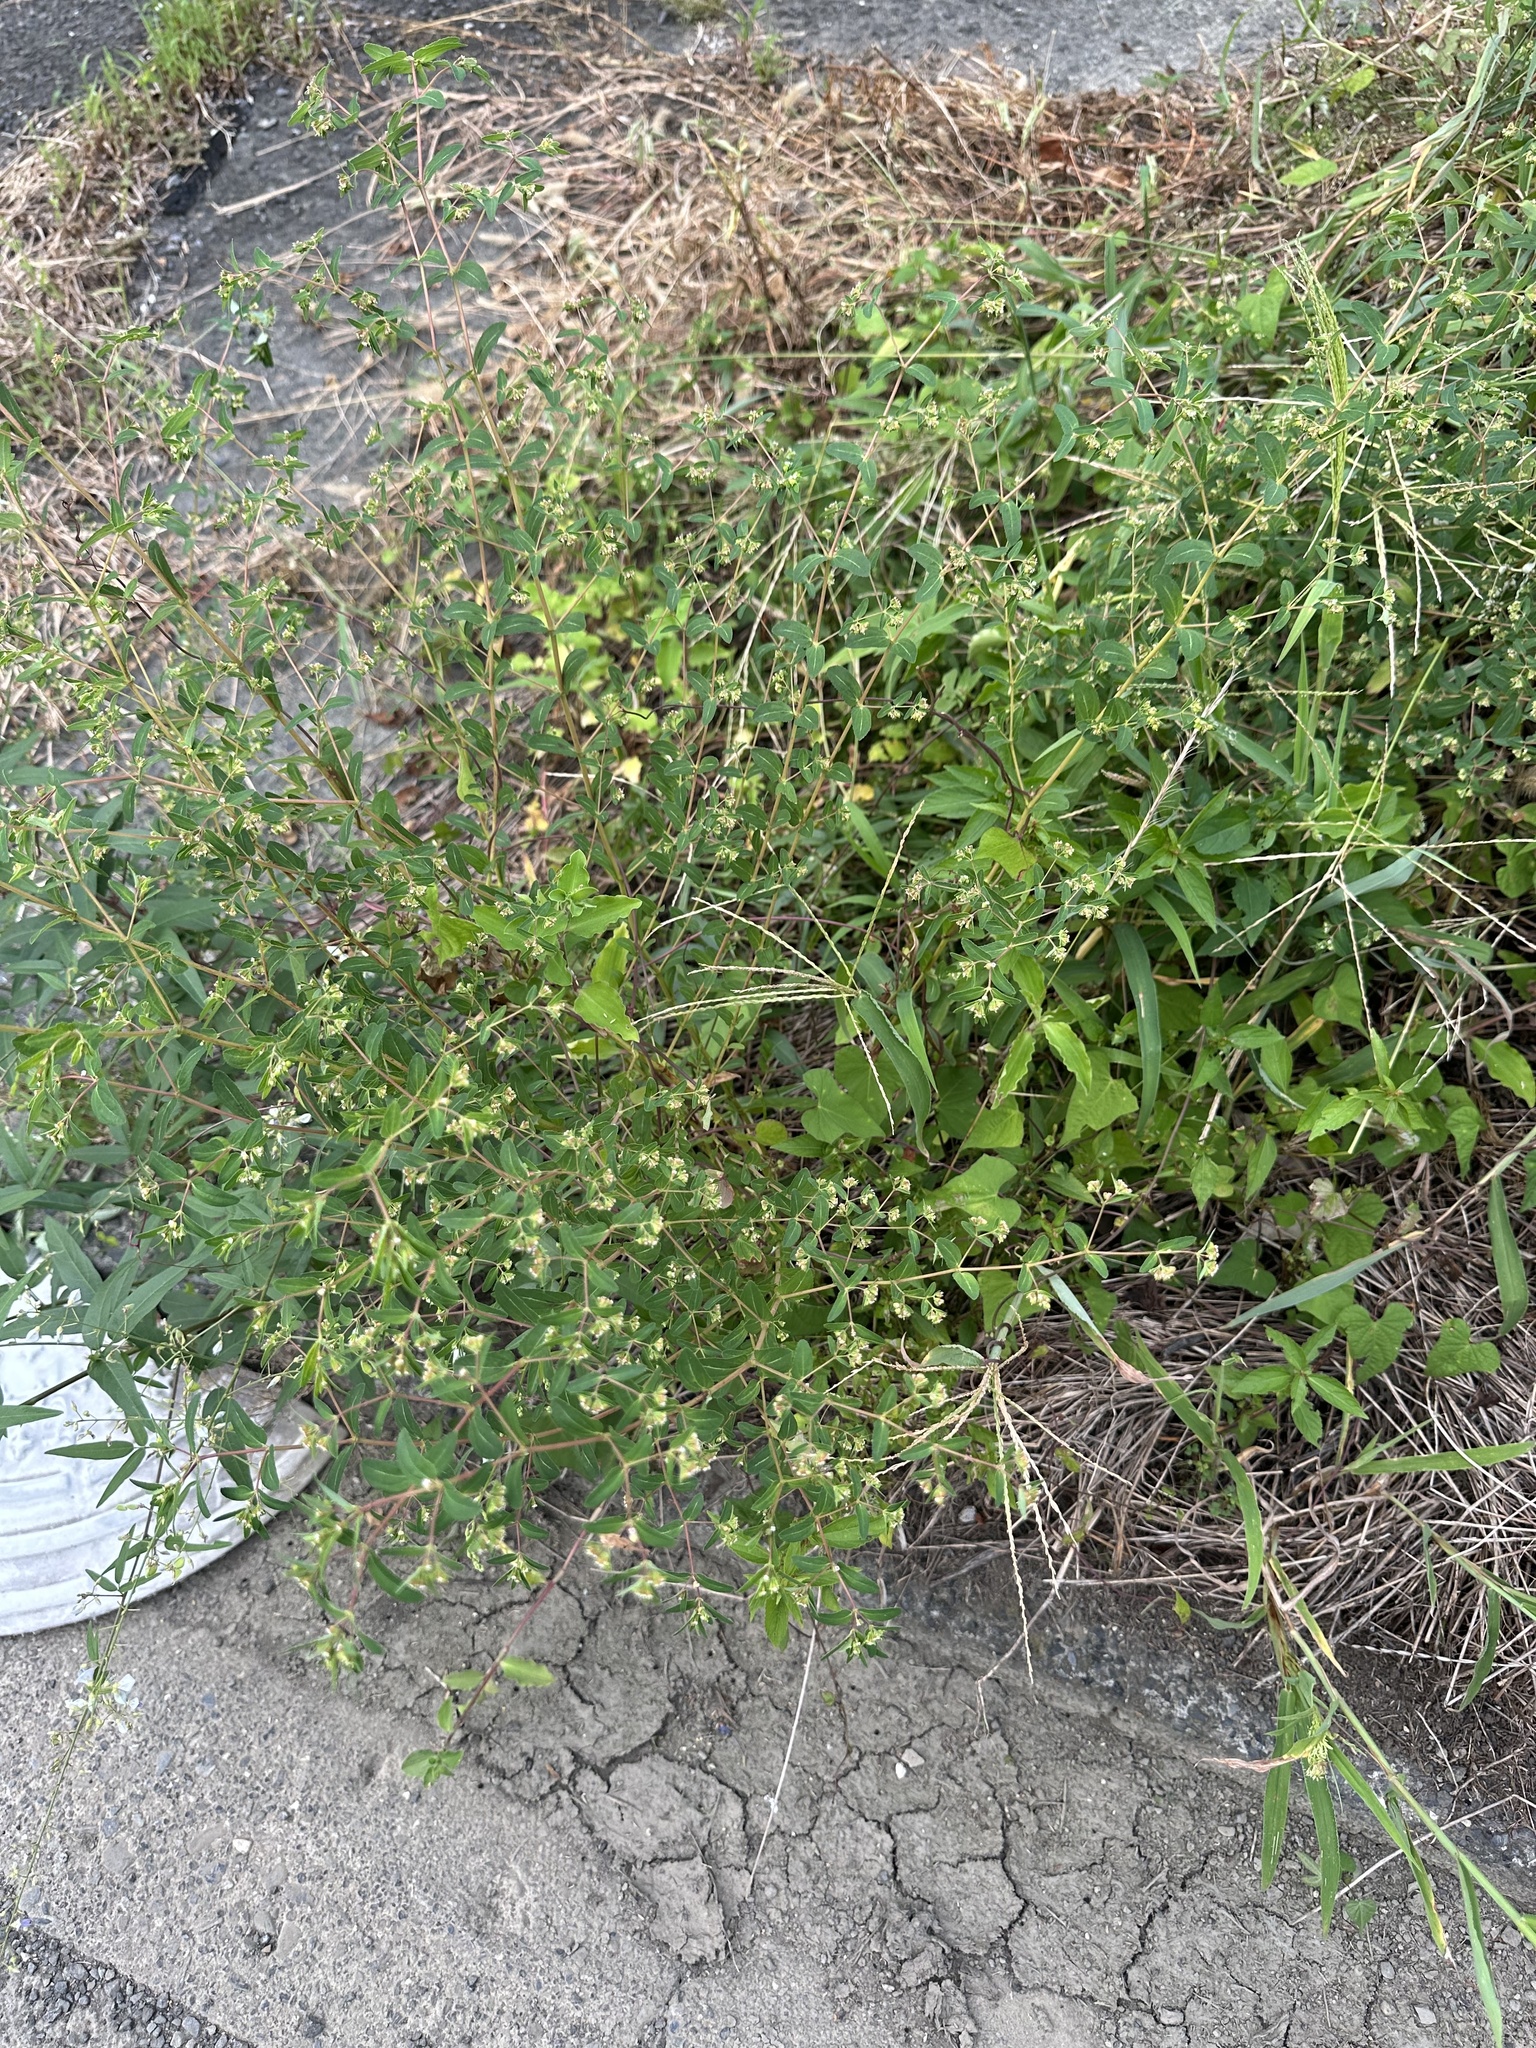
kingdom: Plantae
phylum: Tracheophyta
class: Magnoliopsida
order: Malpighiales
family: Euphorbiaceae
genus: Euphorbia
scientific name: Euphorbia nutans
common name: Eyebane
